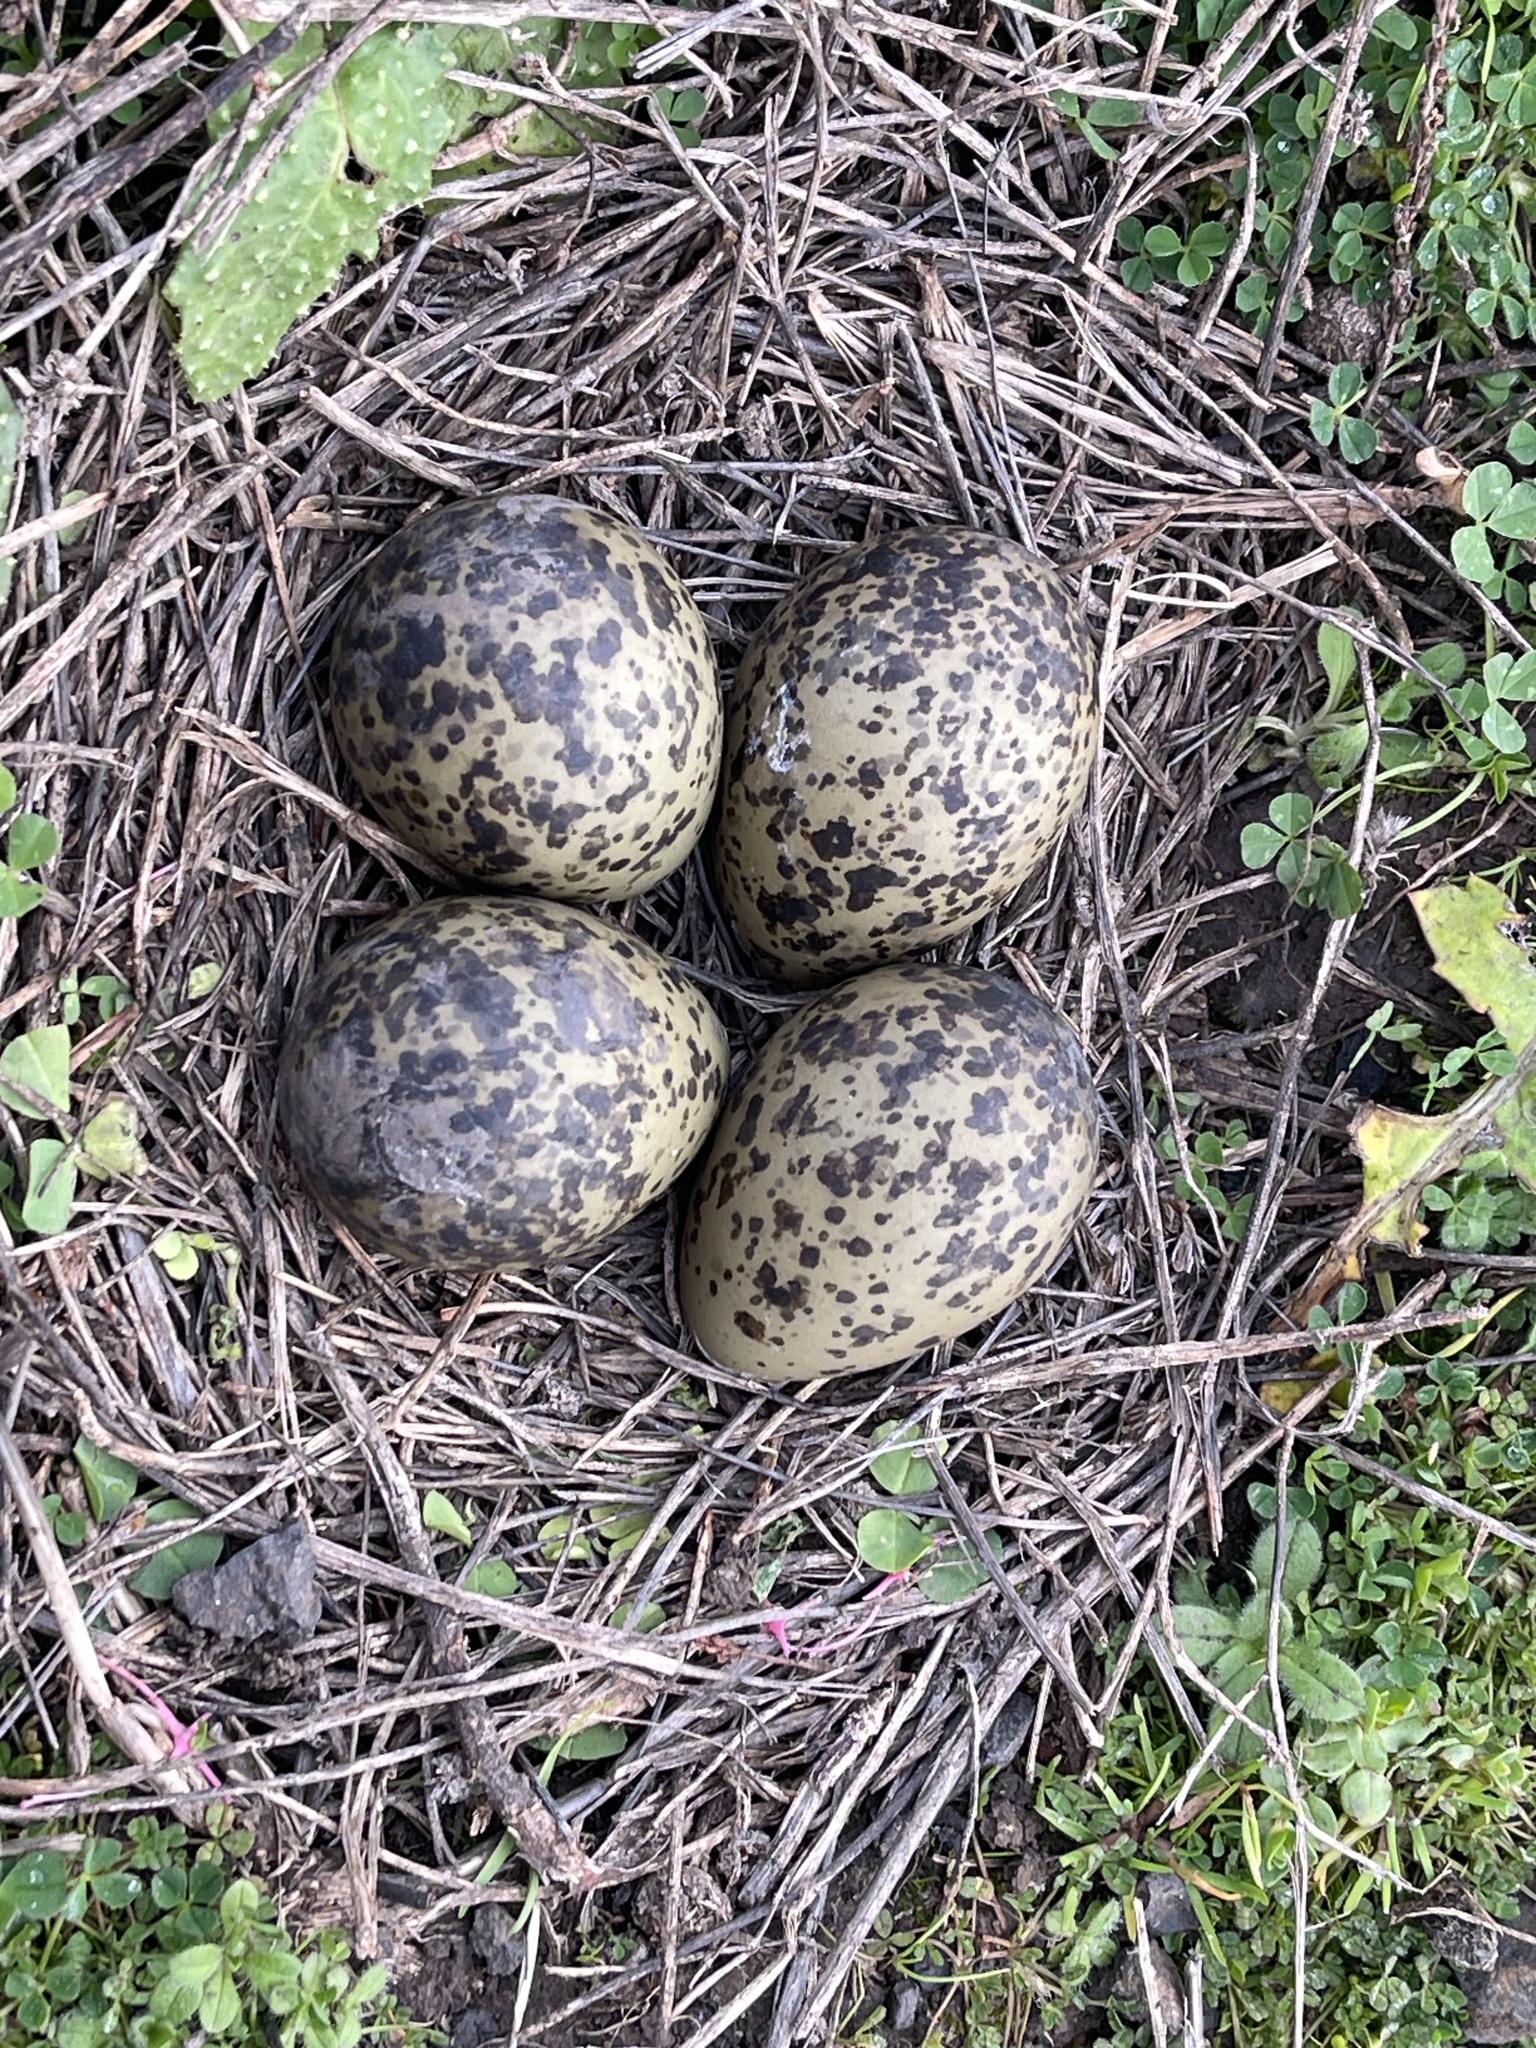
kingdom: Animalia
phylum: Chordata
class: Aves
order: Charadriiformes
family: Charadriidae
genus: Vanellus
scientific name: Vanellus miles
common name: Masked lapwing
